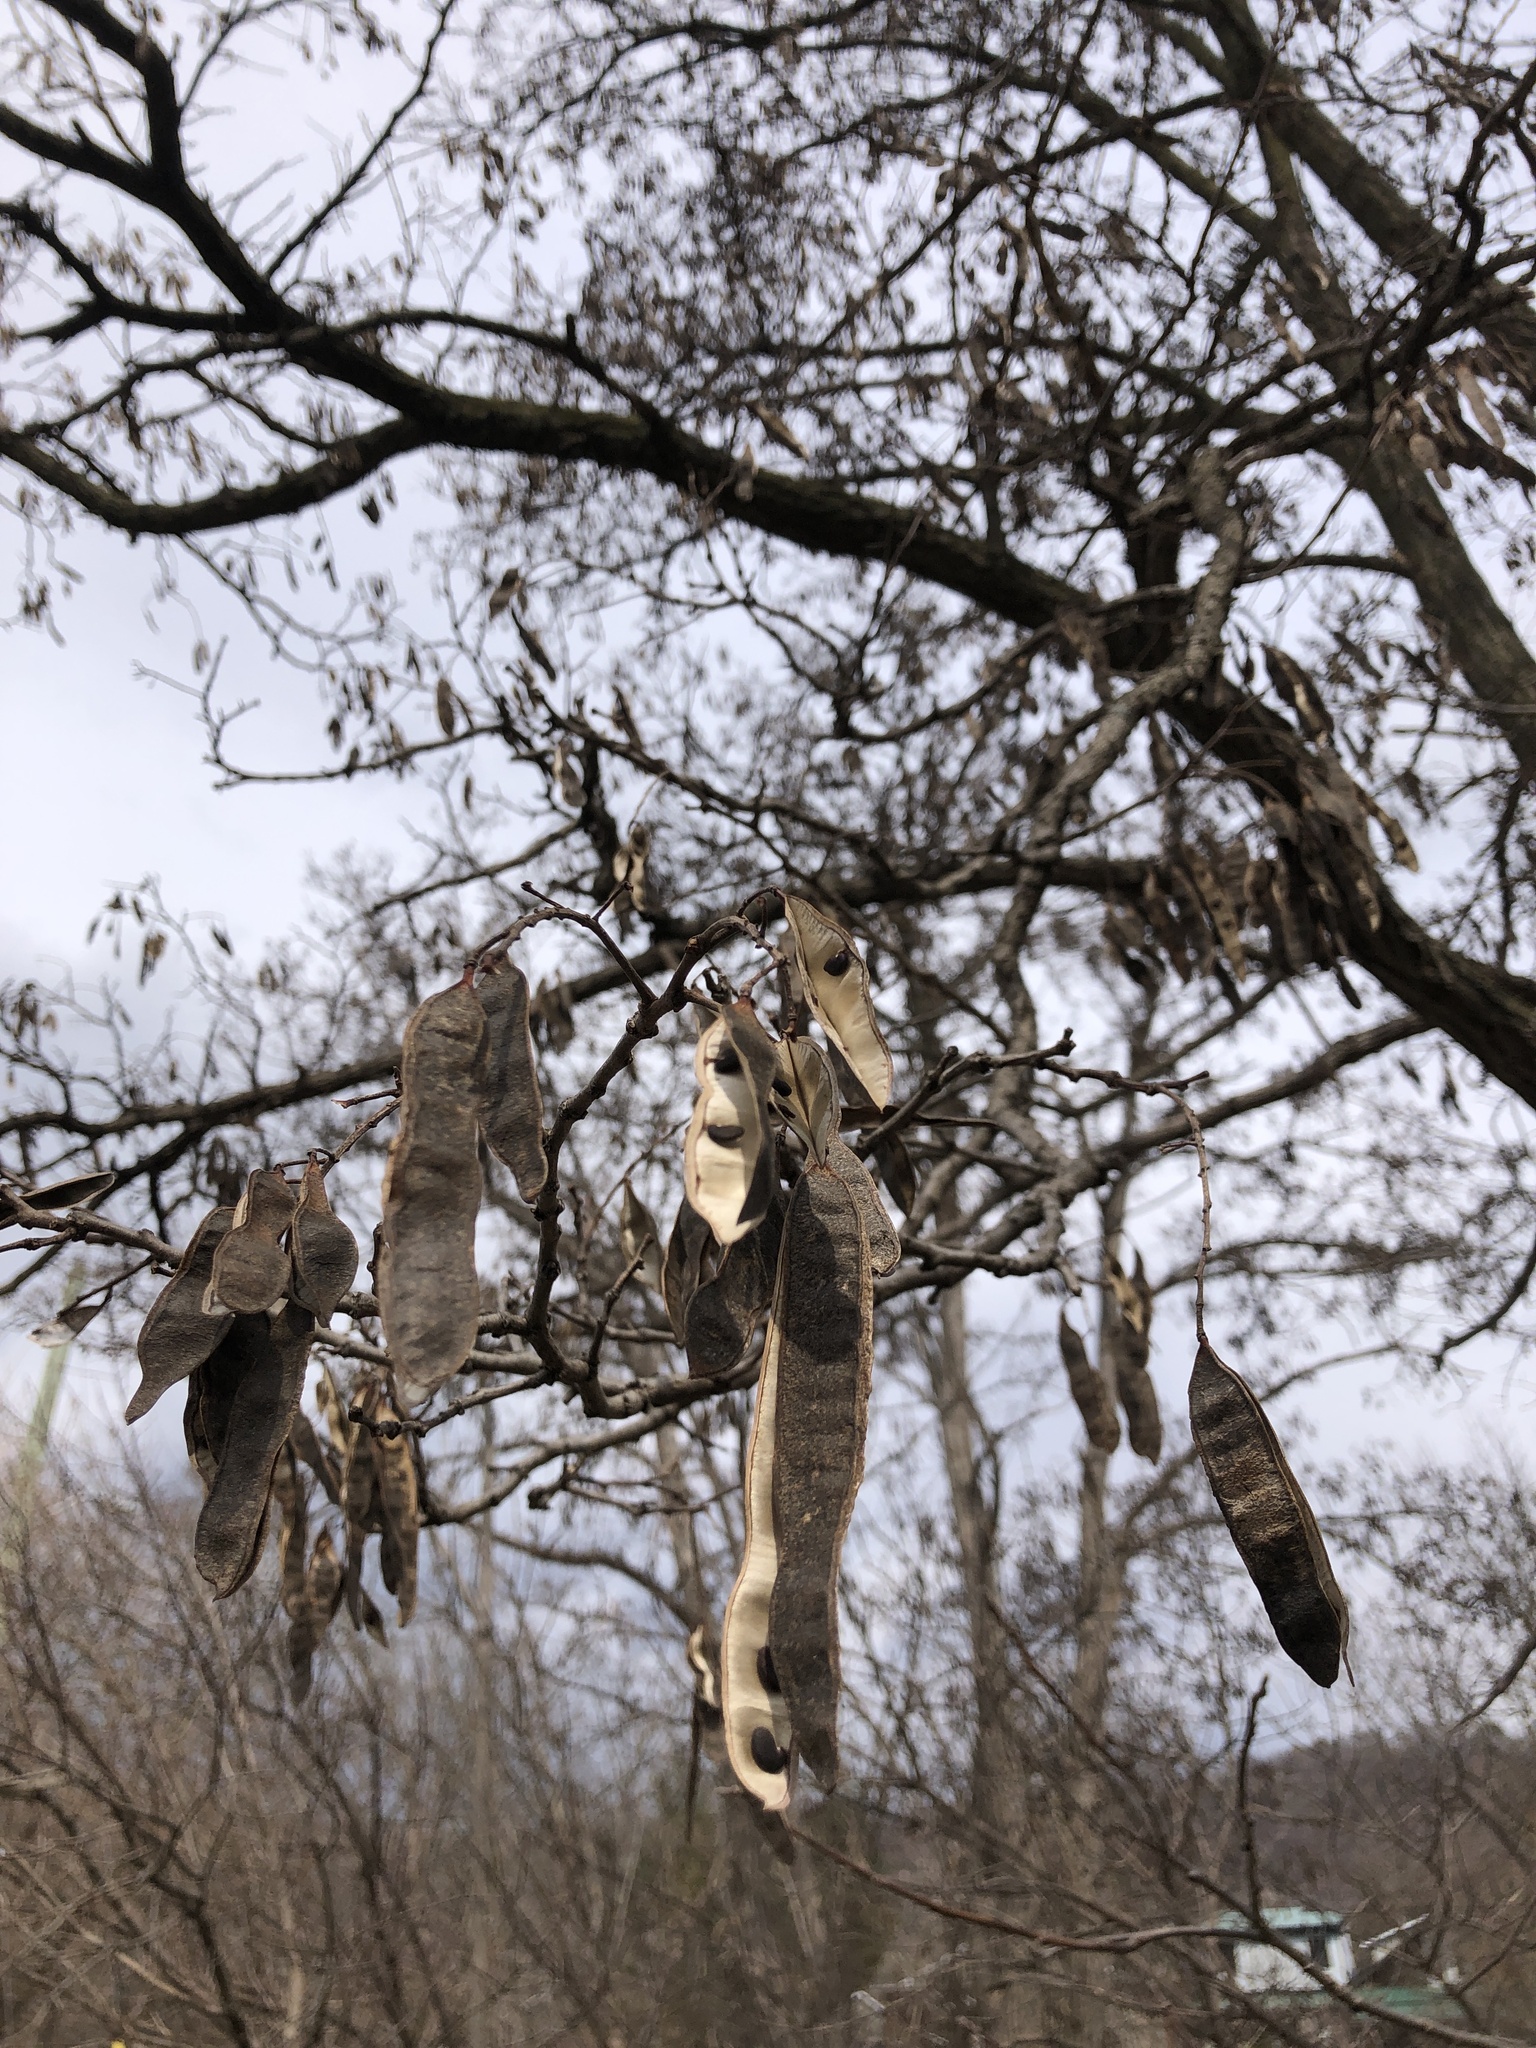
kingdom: Plantae
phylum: Tracheophyta
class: Magnoliopsida
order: Fabales
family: Fabaceae
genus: Robinia
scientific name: Robinia pseudoacacia
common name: Black locust
